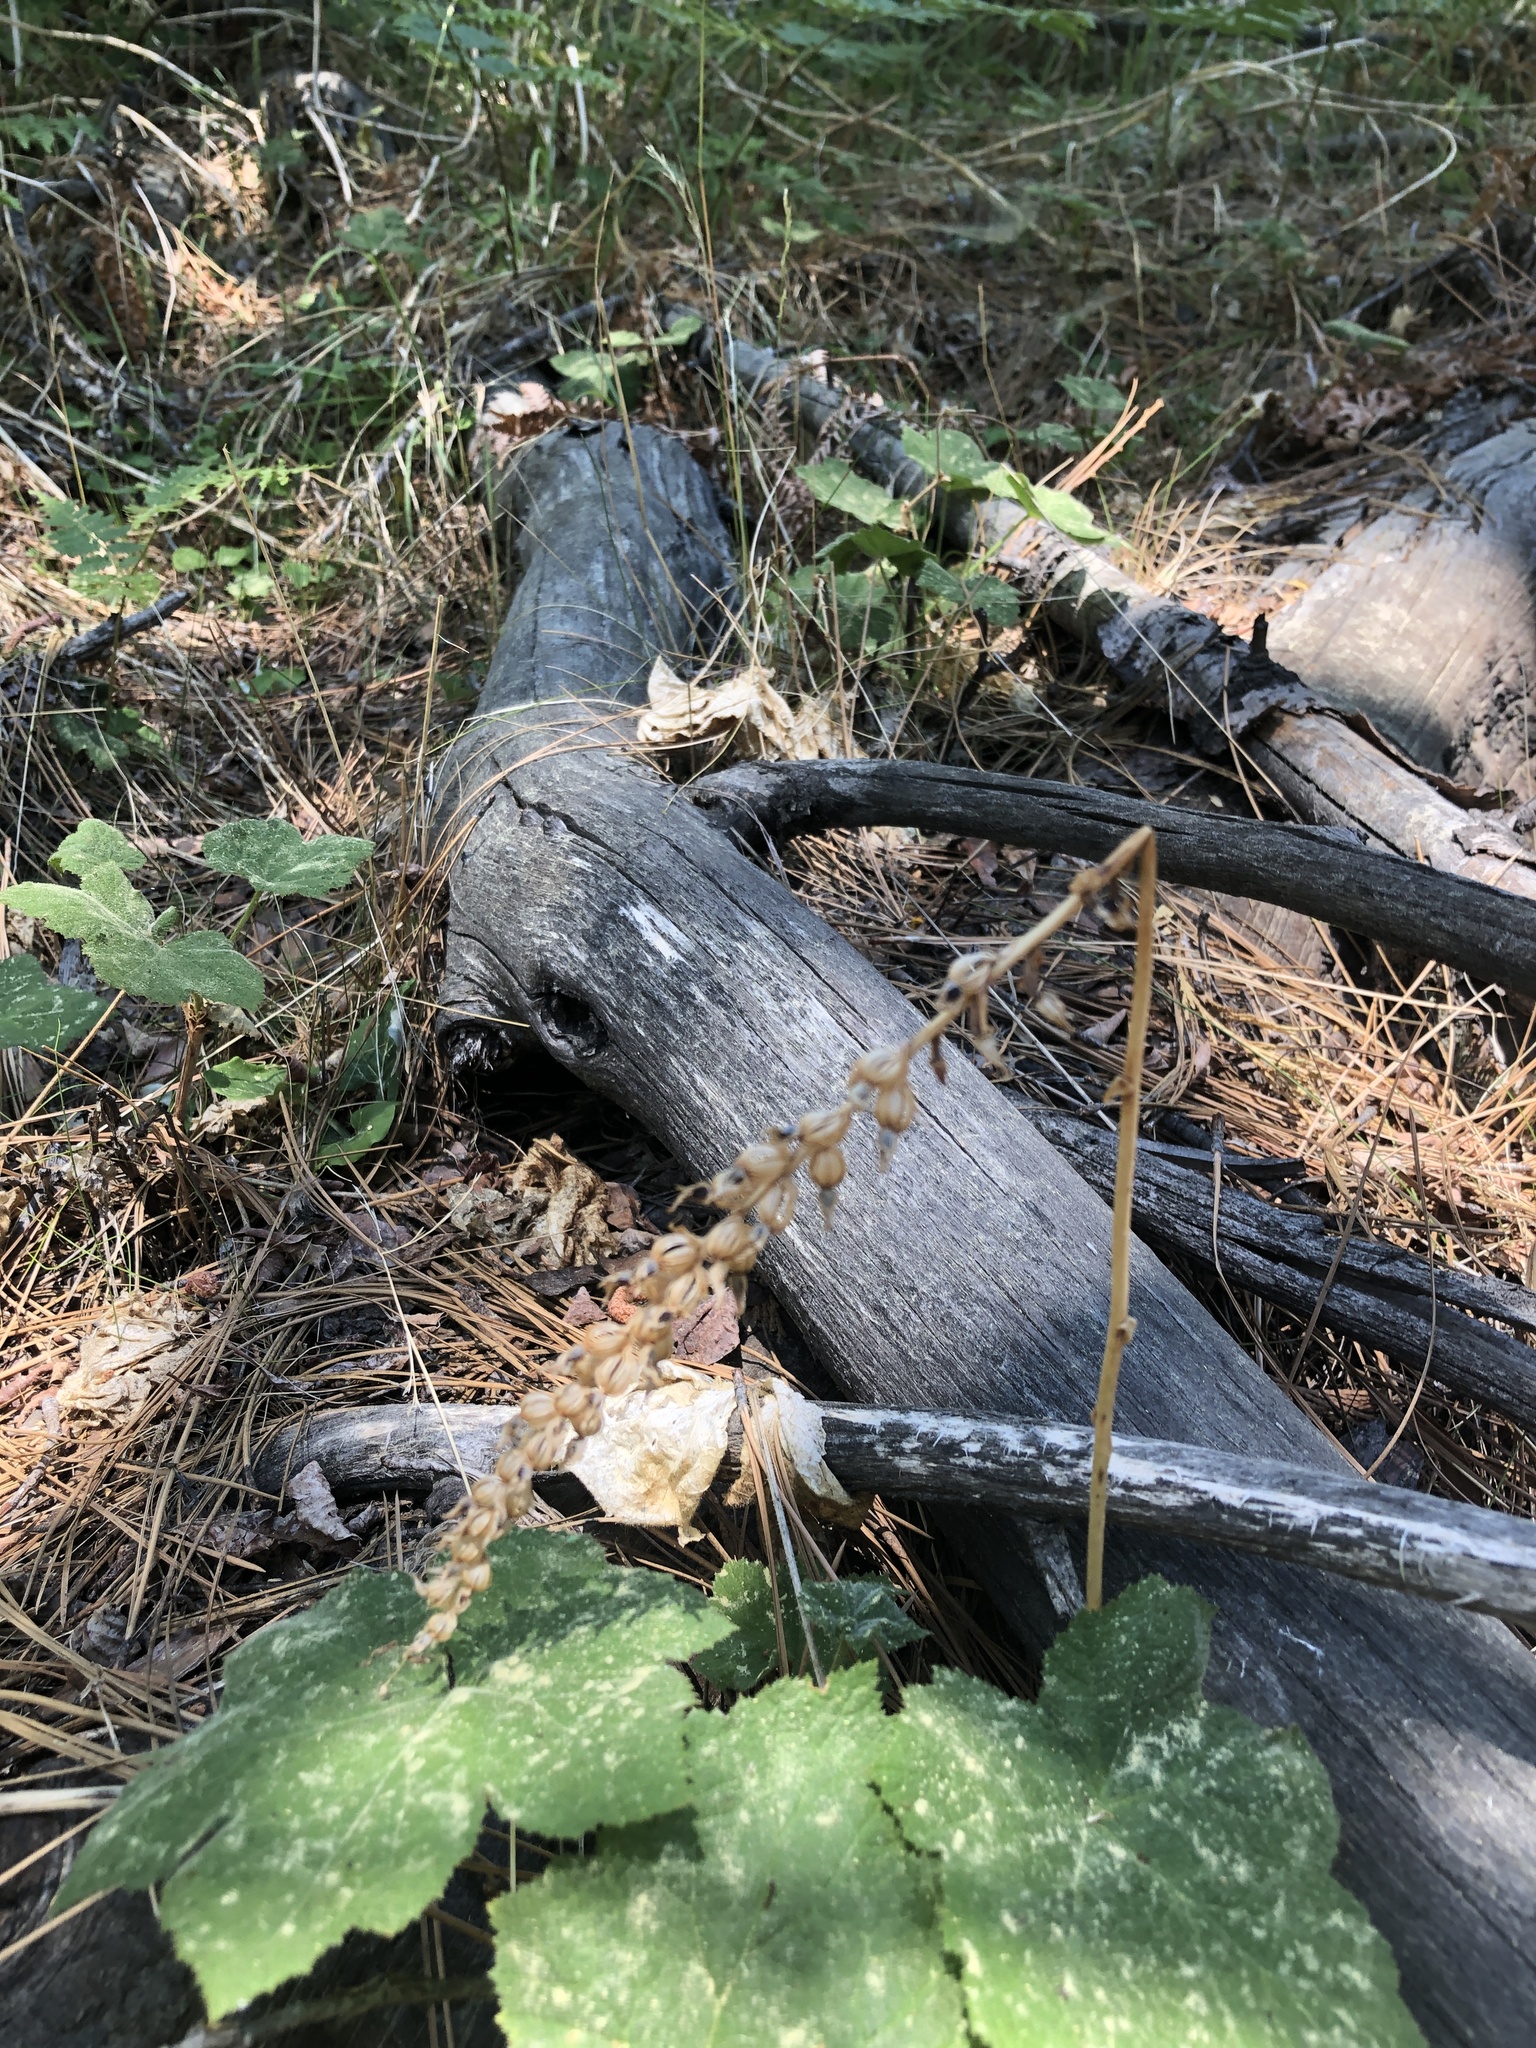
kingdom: Plantae
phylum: Tracheophyta
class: Liliopsida
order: Asparagales
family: Orchidaceae
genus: Goodyera
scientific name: Goodyera oblongifolia
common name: Giant rattlesnake-plantain
